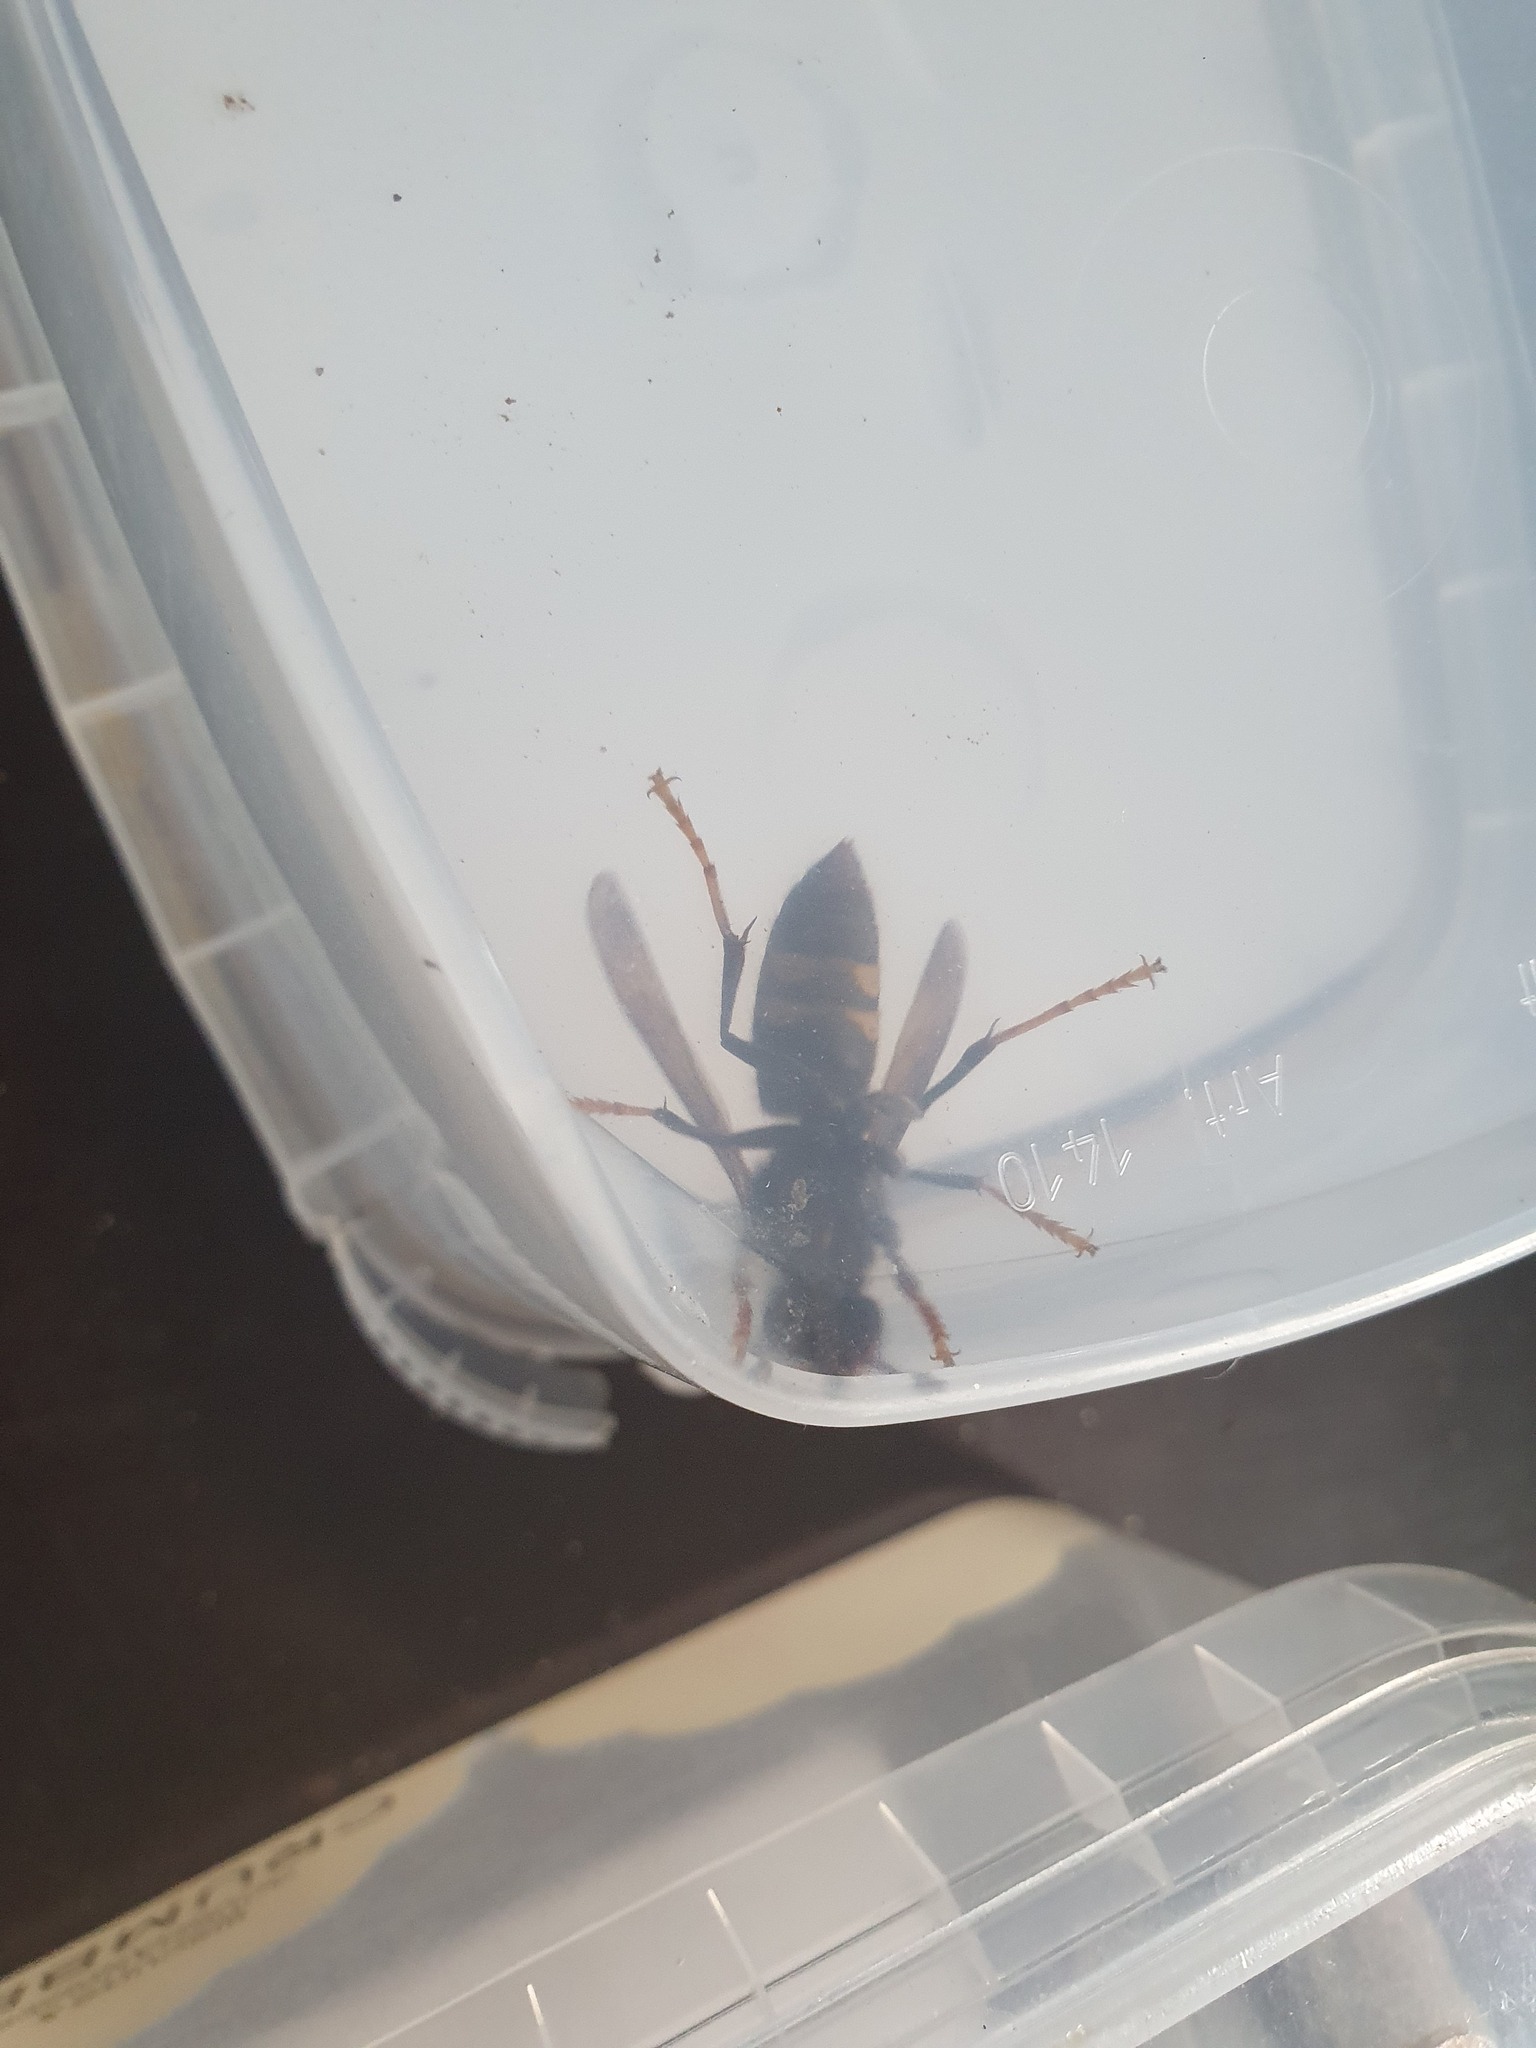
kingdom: Animalia
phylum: Arthropoda
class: Insecta
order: Hymenoptera
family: Vespidae
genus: Vespa
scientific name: Vespa velutina
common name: Asian hornet
